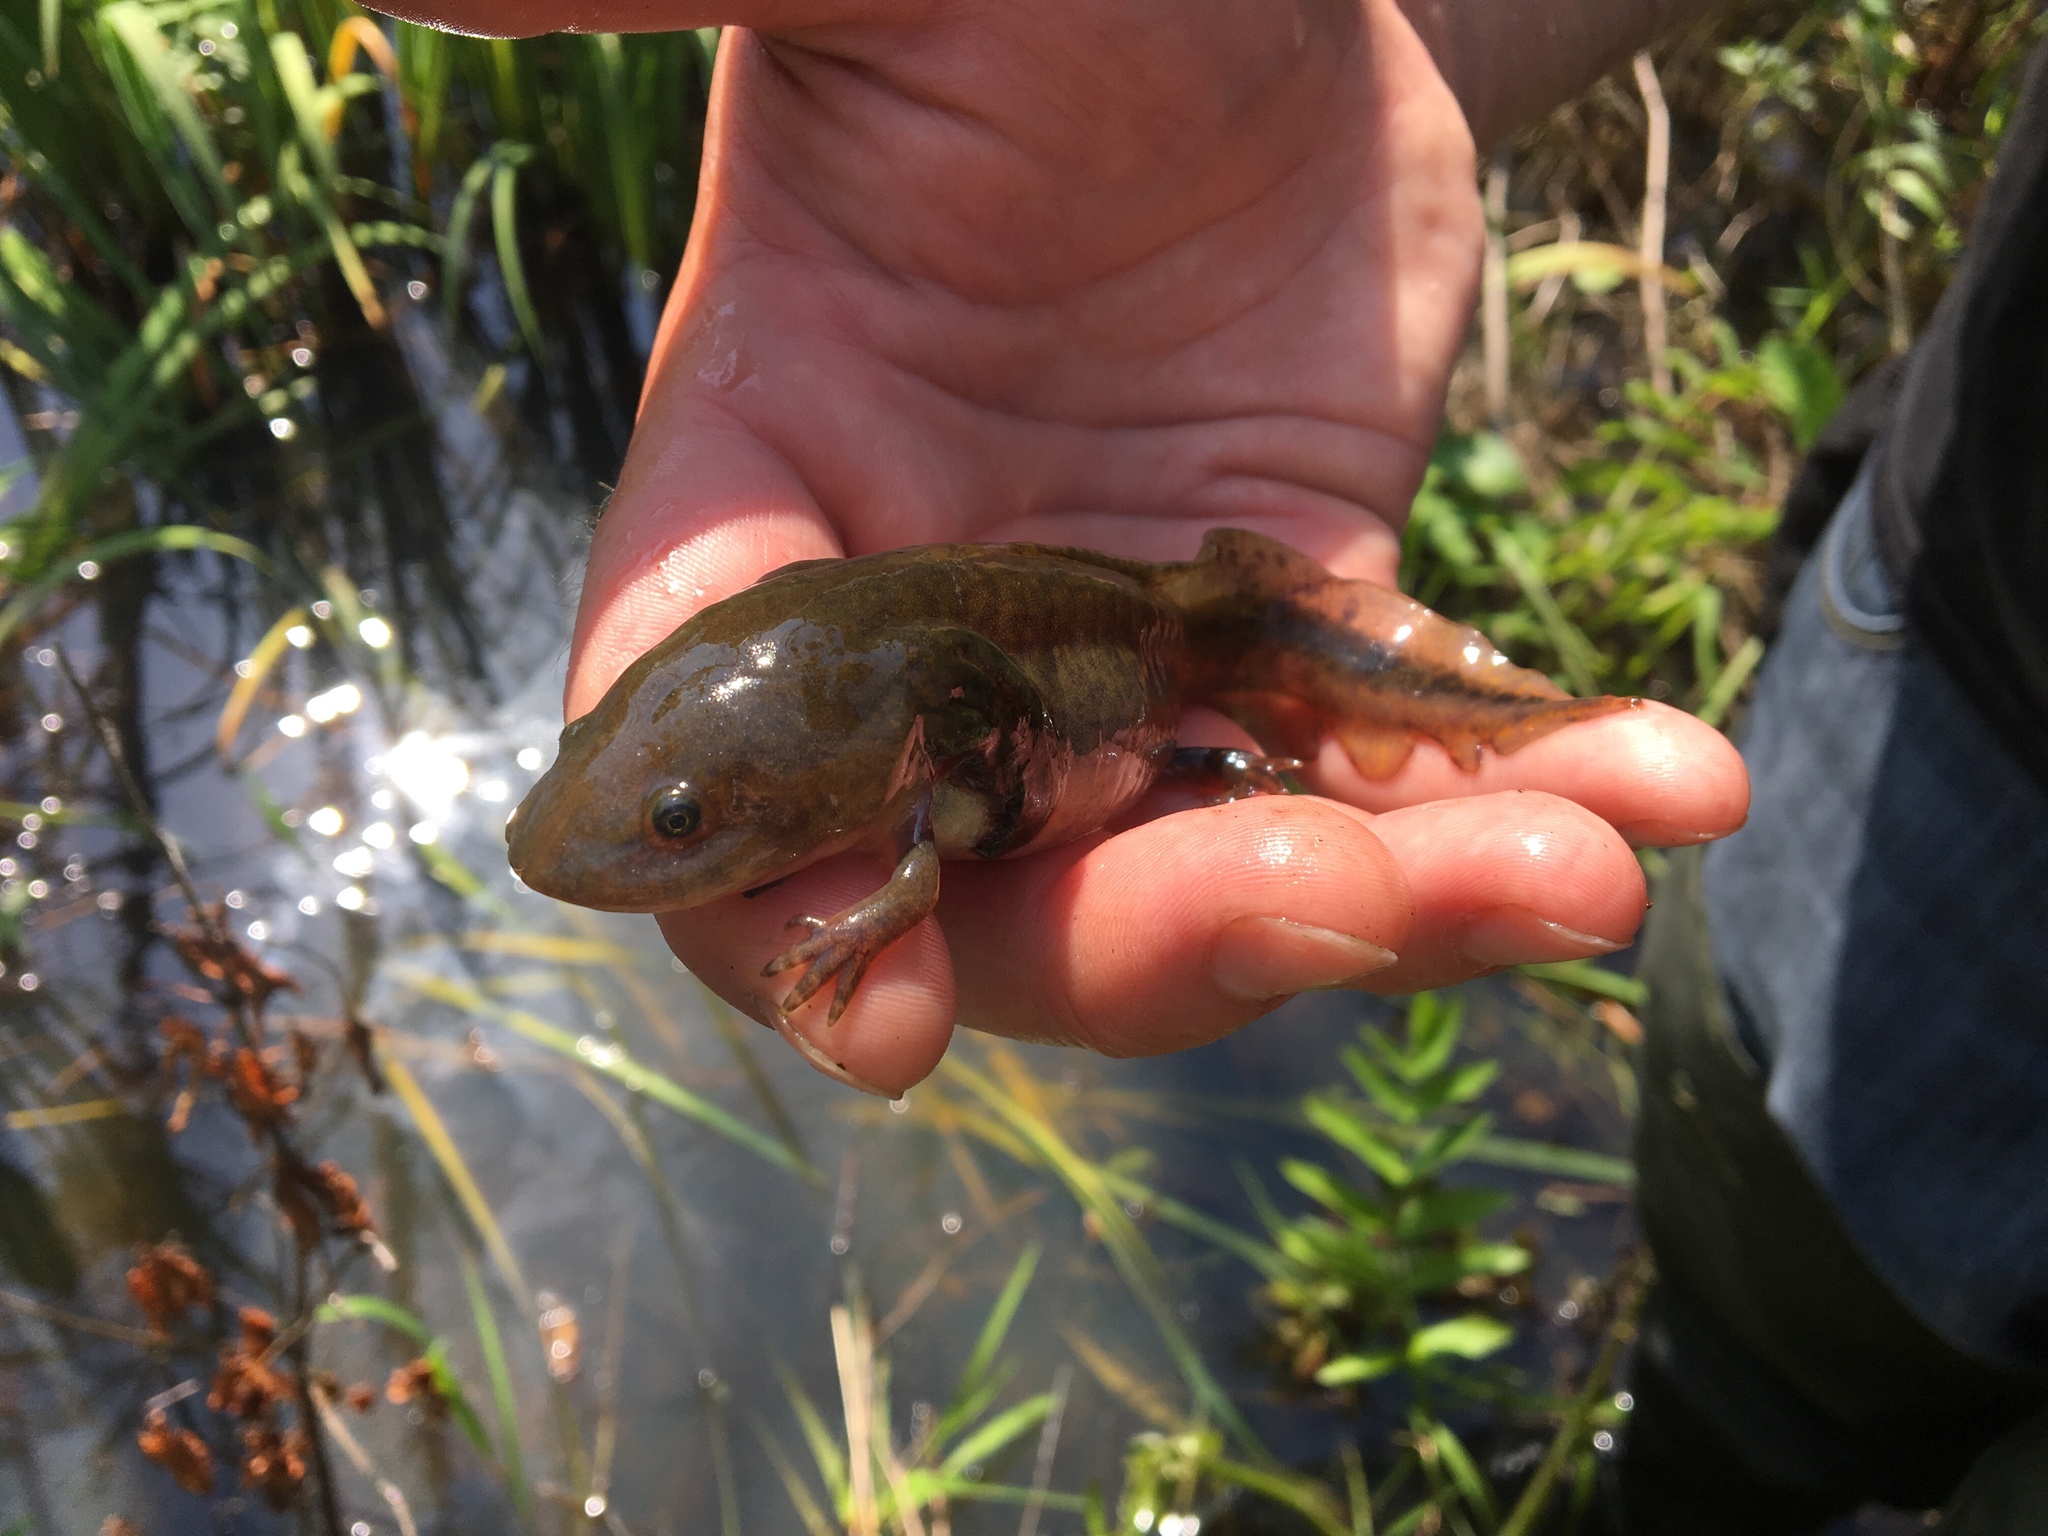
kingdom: Animalia
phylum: Chordata
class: Amphibia
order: Caudata
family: Ambystomatidae
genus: Ambystoma
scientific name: Ambystoma tigrinum
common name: Tiger salamander
